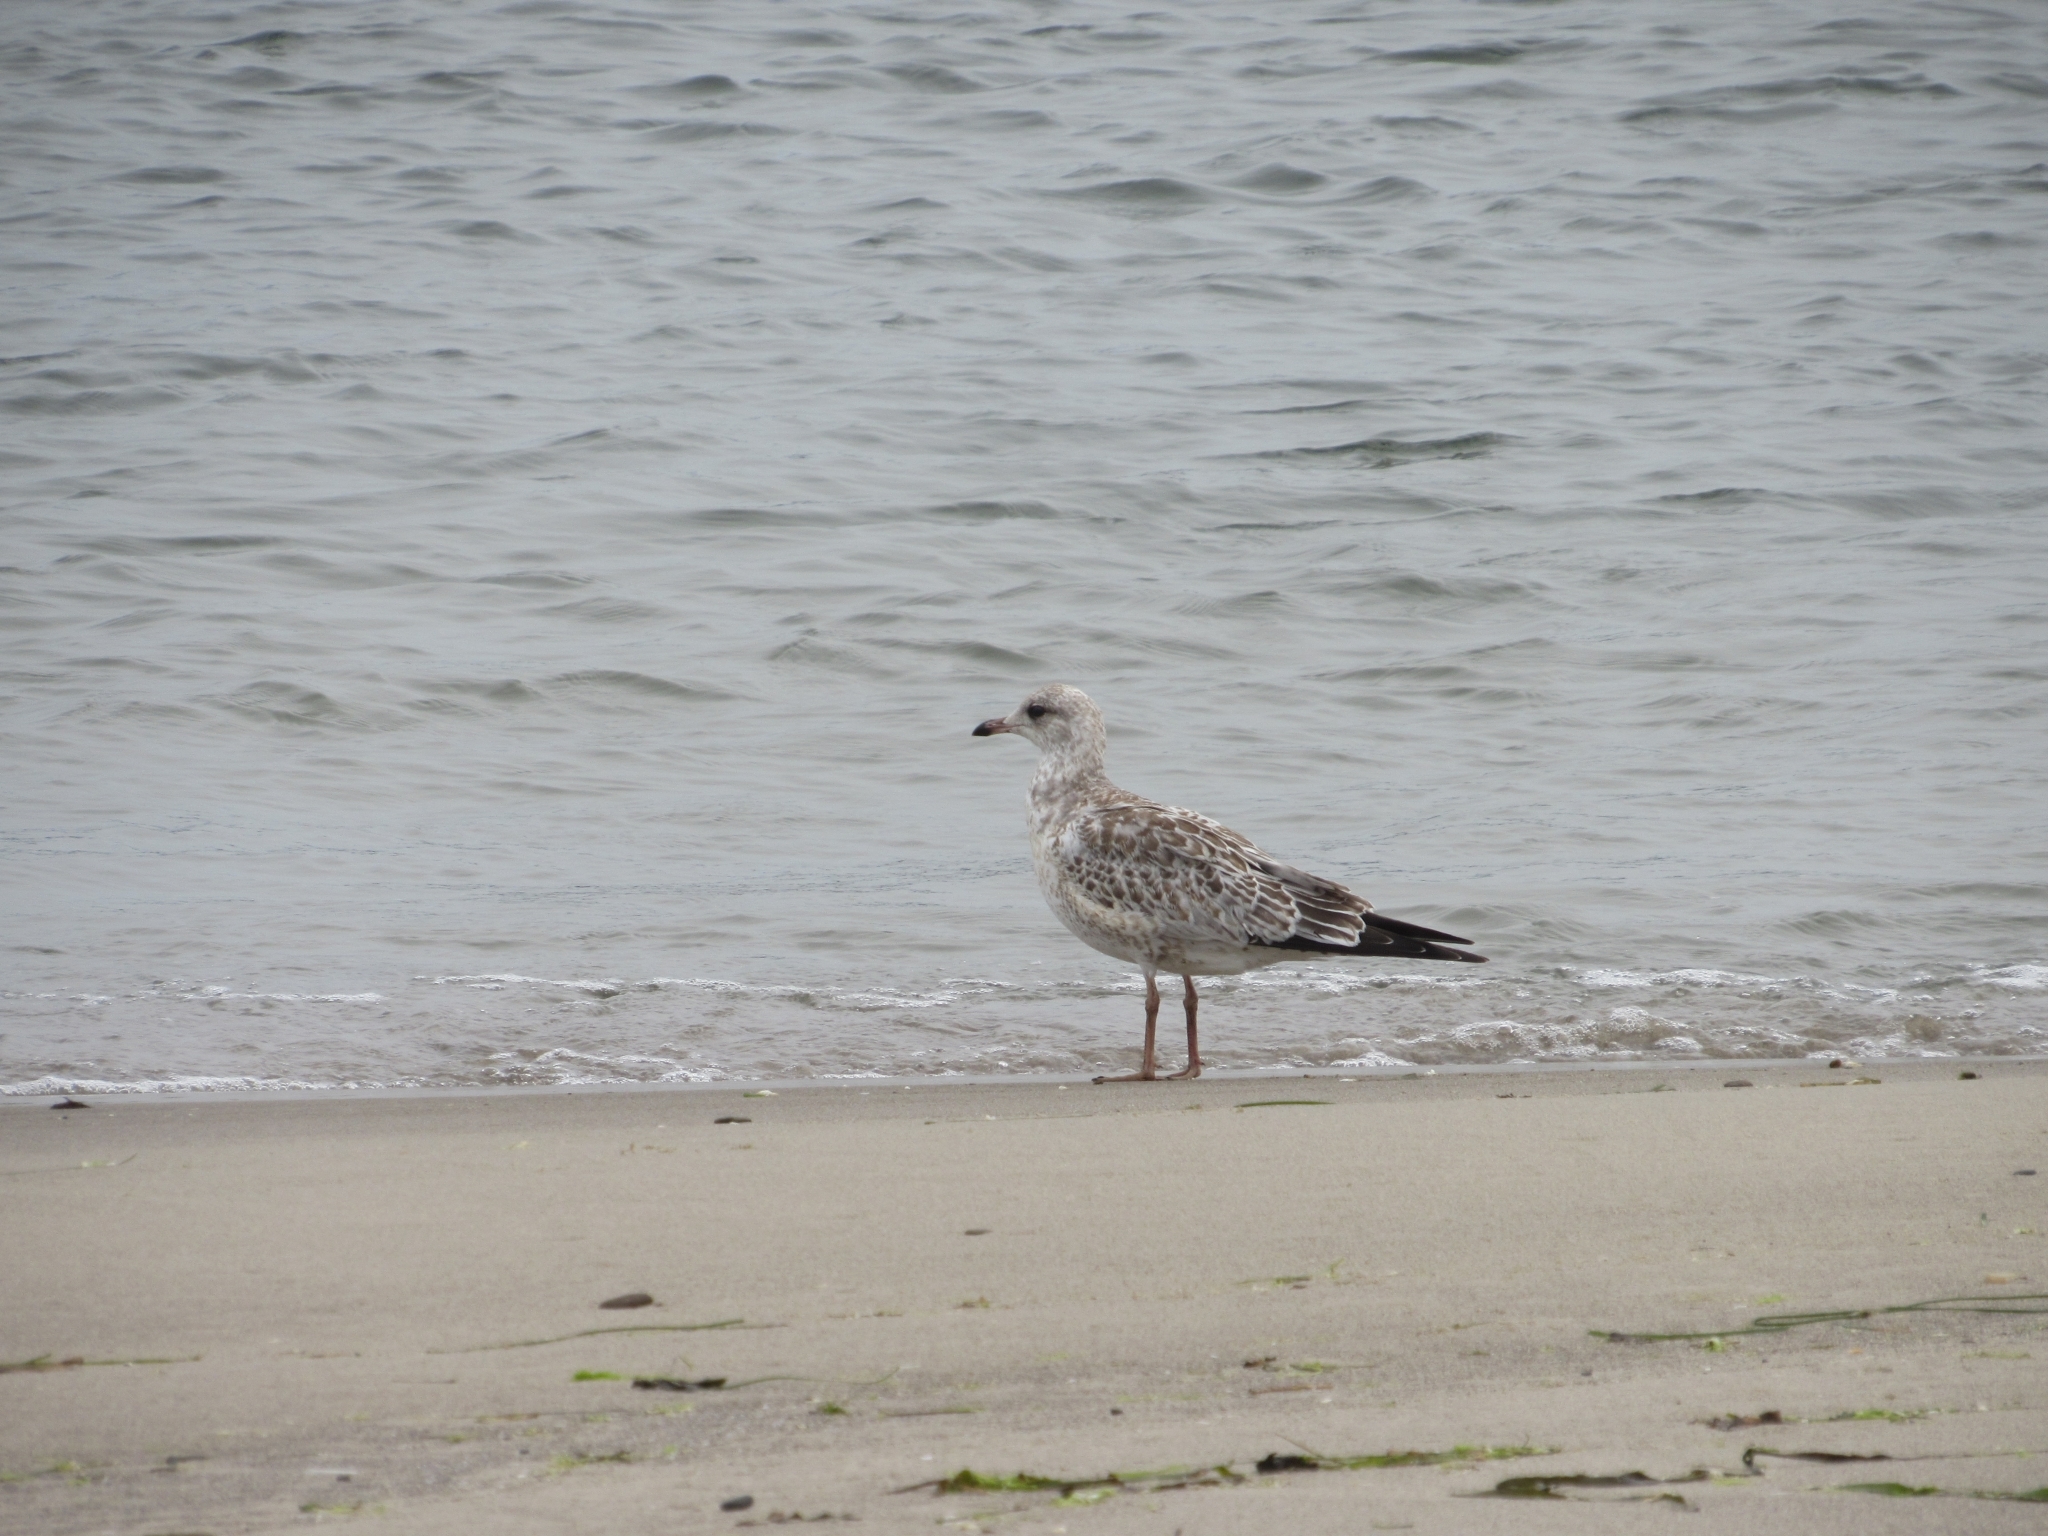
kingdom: Animalia
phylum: Chordata
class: Aves
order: Charadriiformes
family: Laridae
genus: Larus
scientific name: Larus delawarensis
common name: Ring-billed gull
